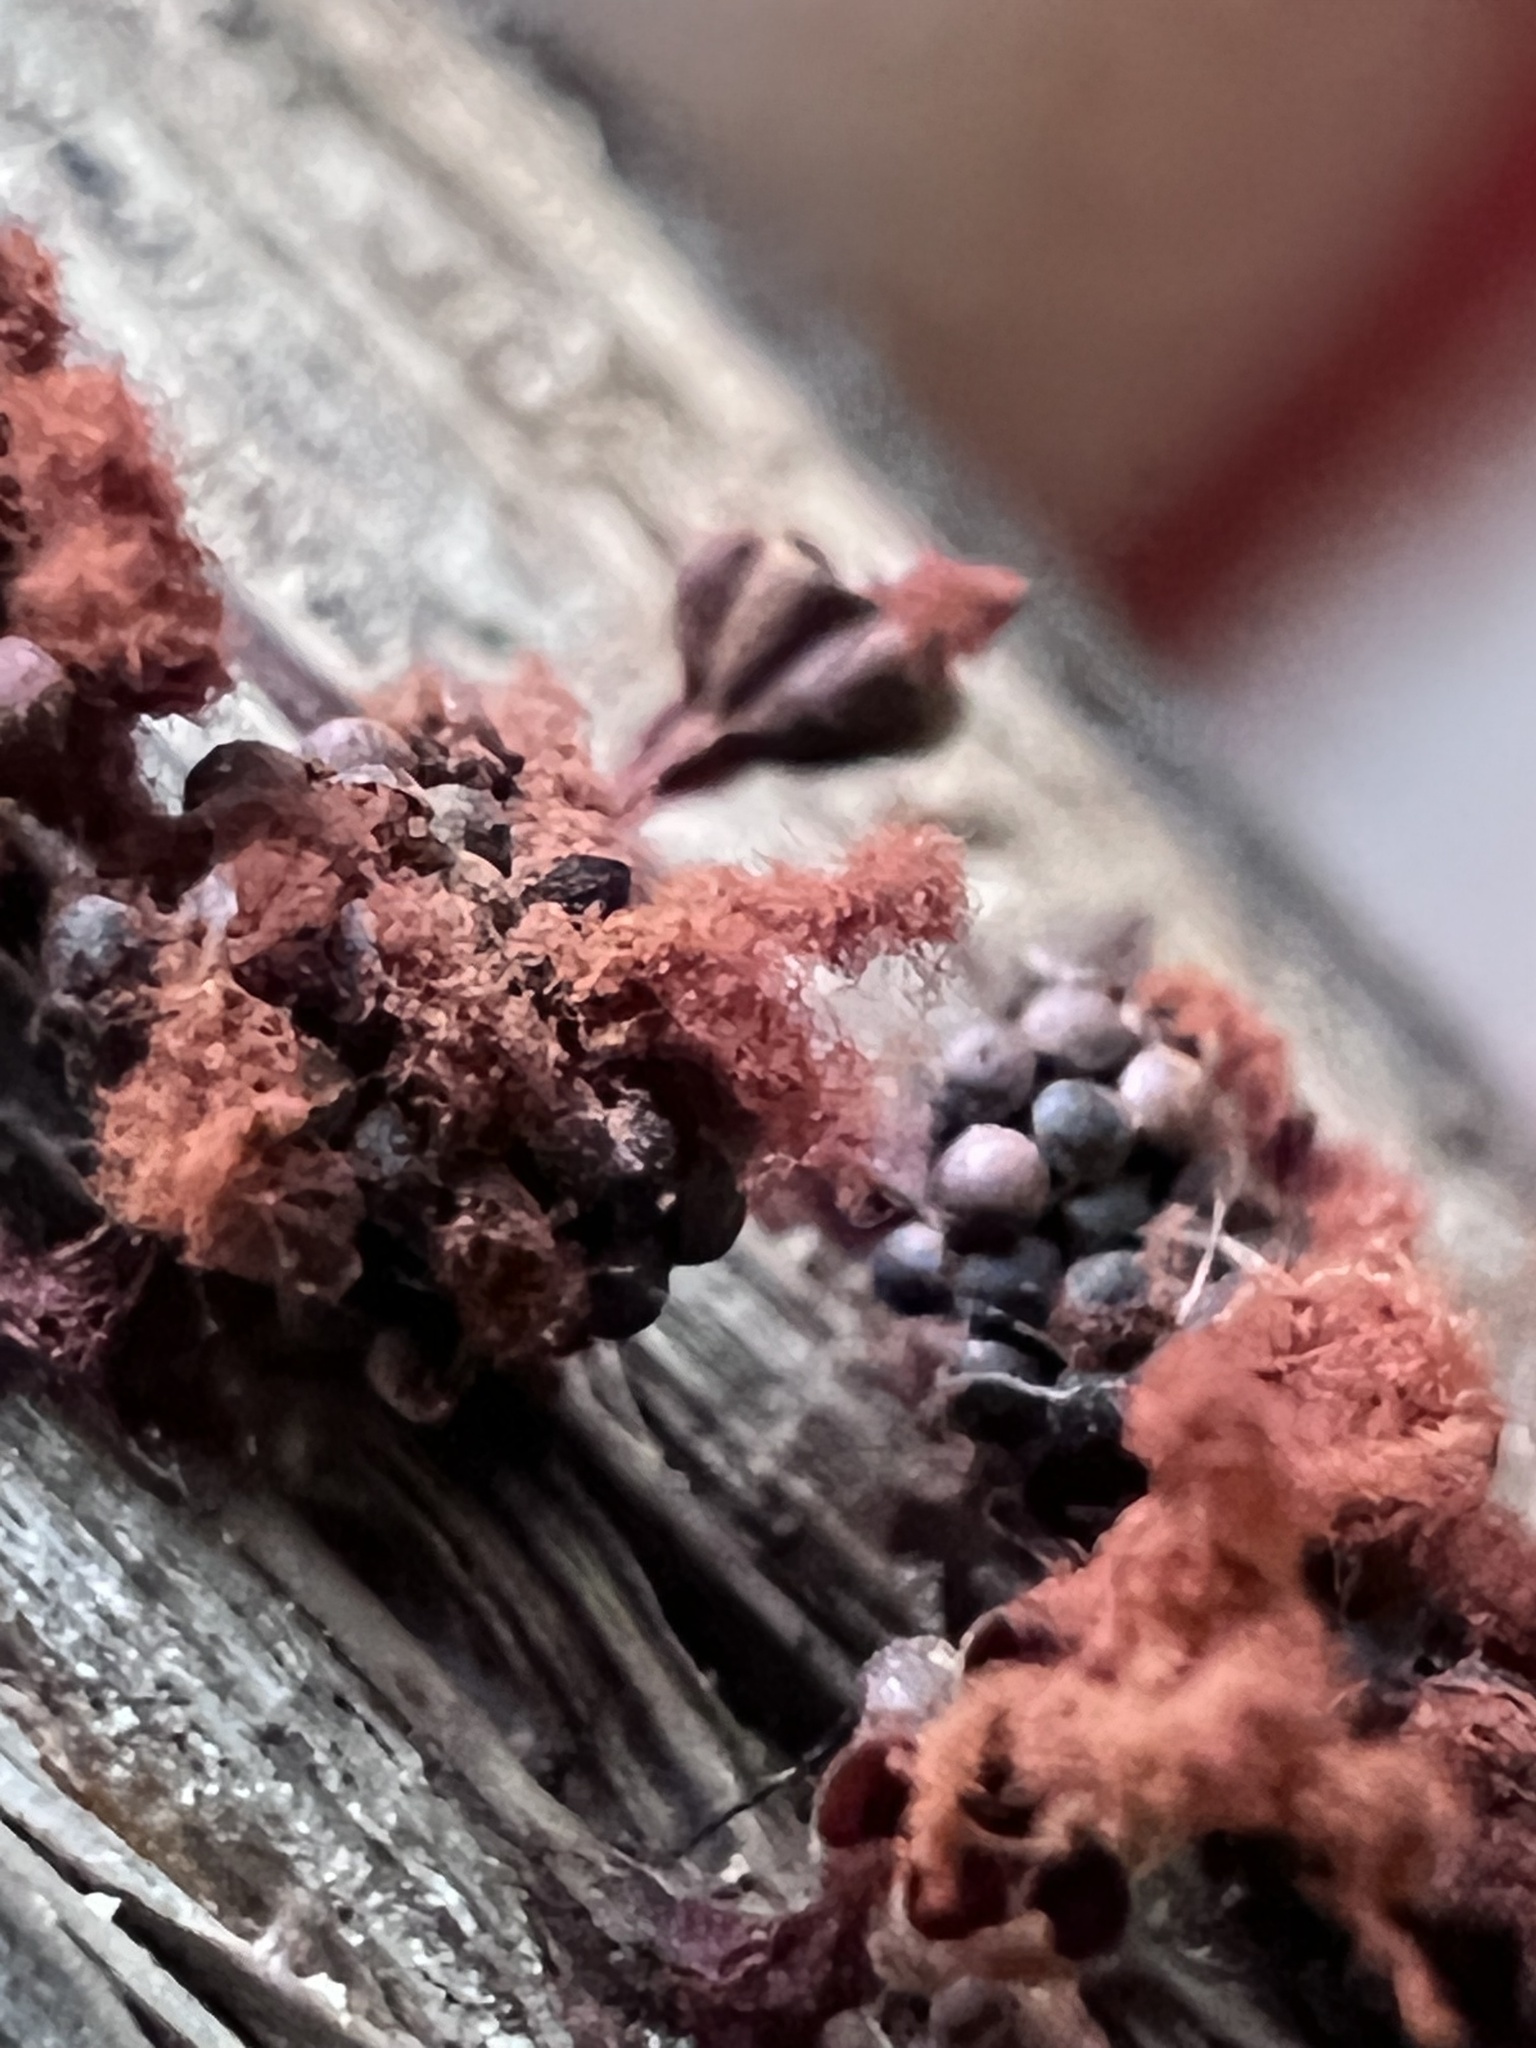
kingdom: Protozoa
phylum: Mycetozoa
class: Myxomycetes
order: Trichiales
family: Trichiaceae
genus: Metatrichia
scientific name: Metatrichia vesparia
